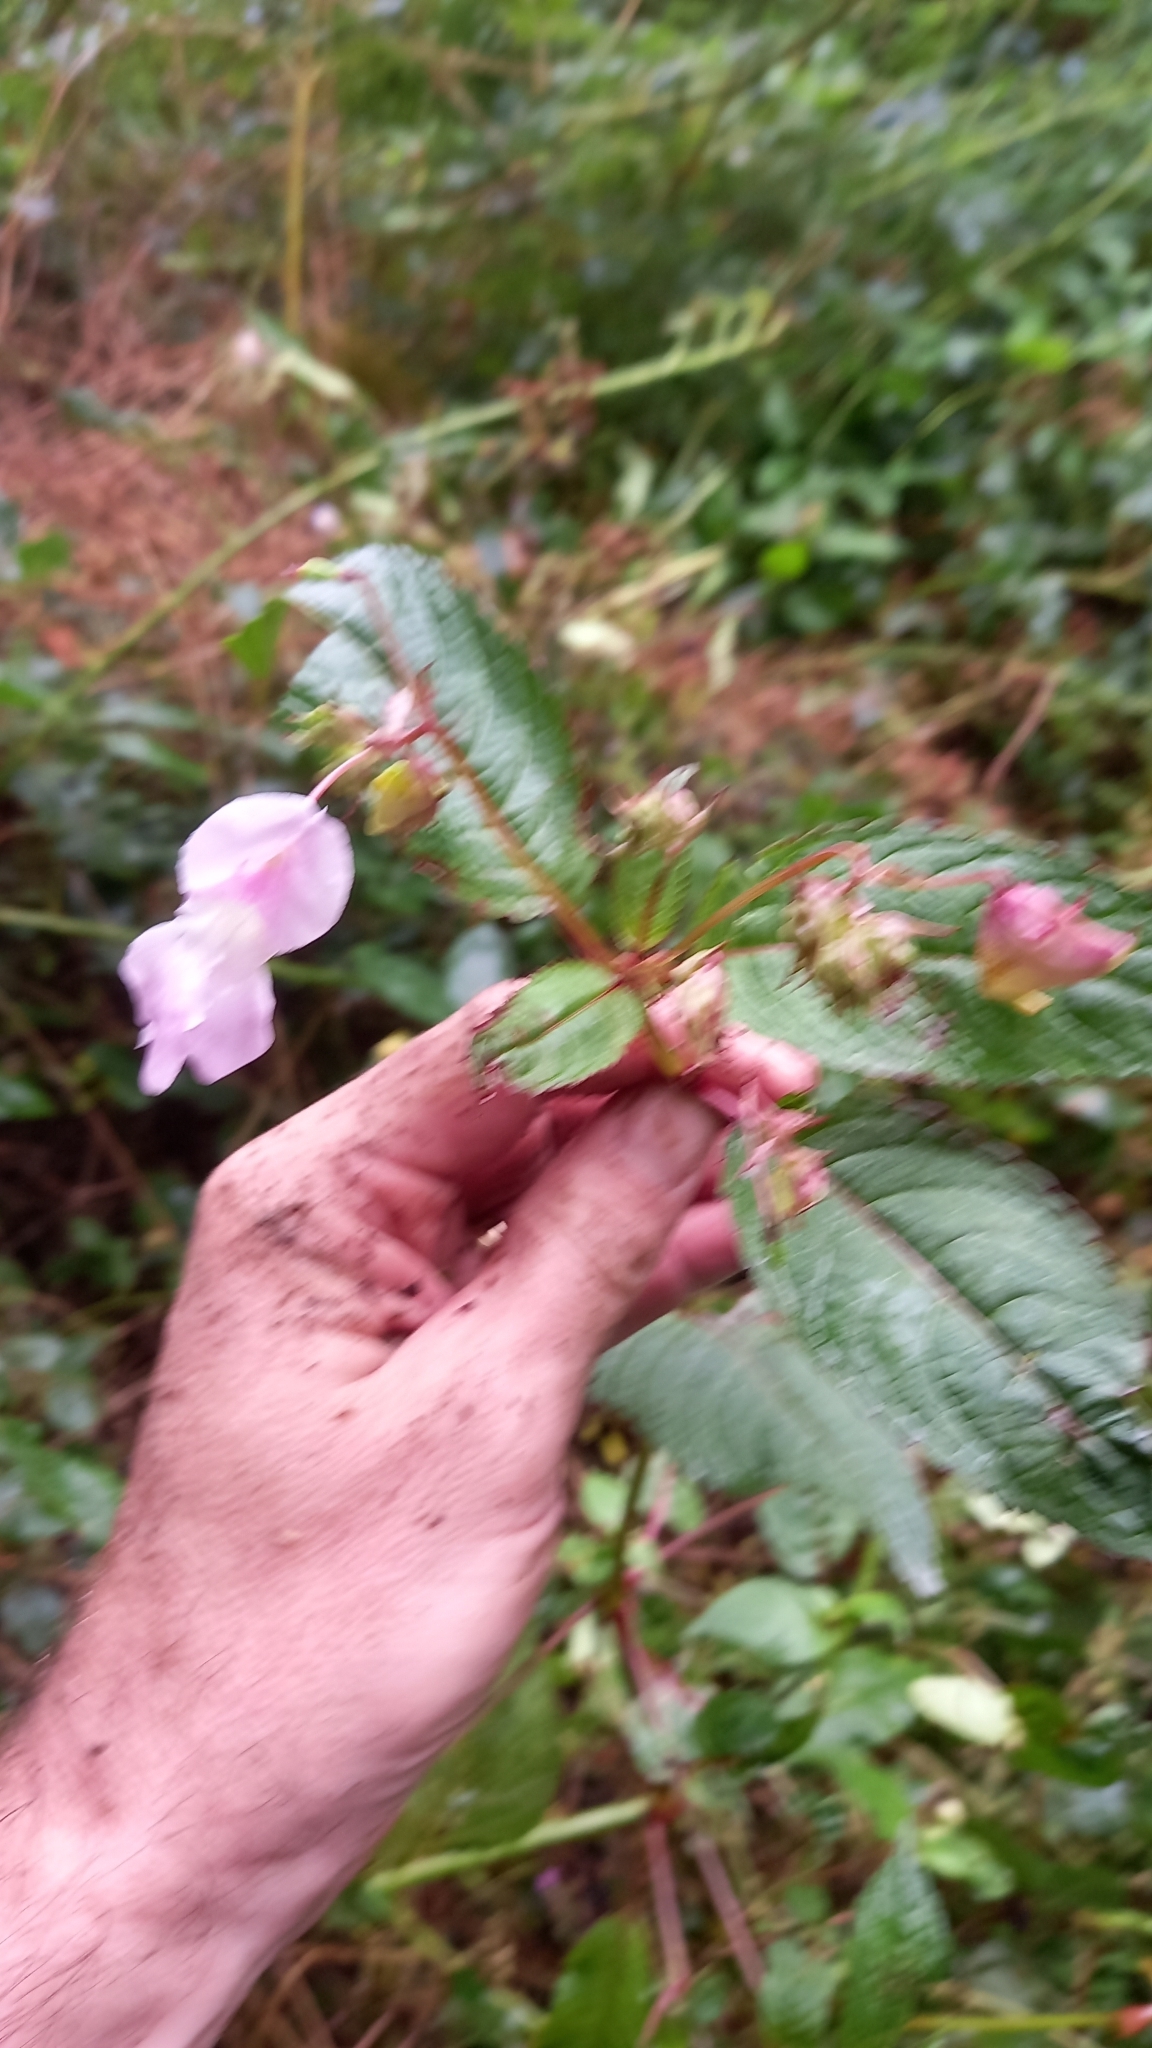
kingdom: Plantae
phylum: Tracheophyta
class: Magnoliopsida
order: Ericales
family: Balsaminaceae
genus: Impatiens
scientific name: Impatiens glandulifera
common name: Himalayan balsam
